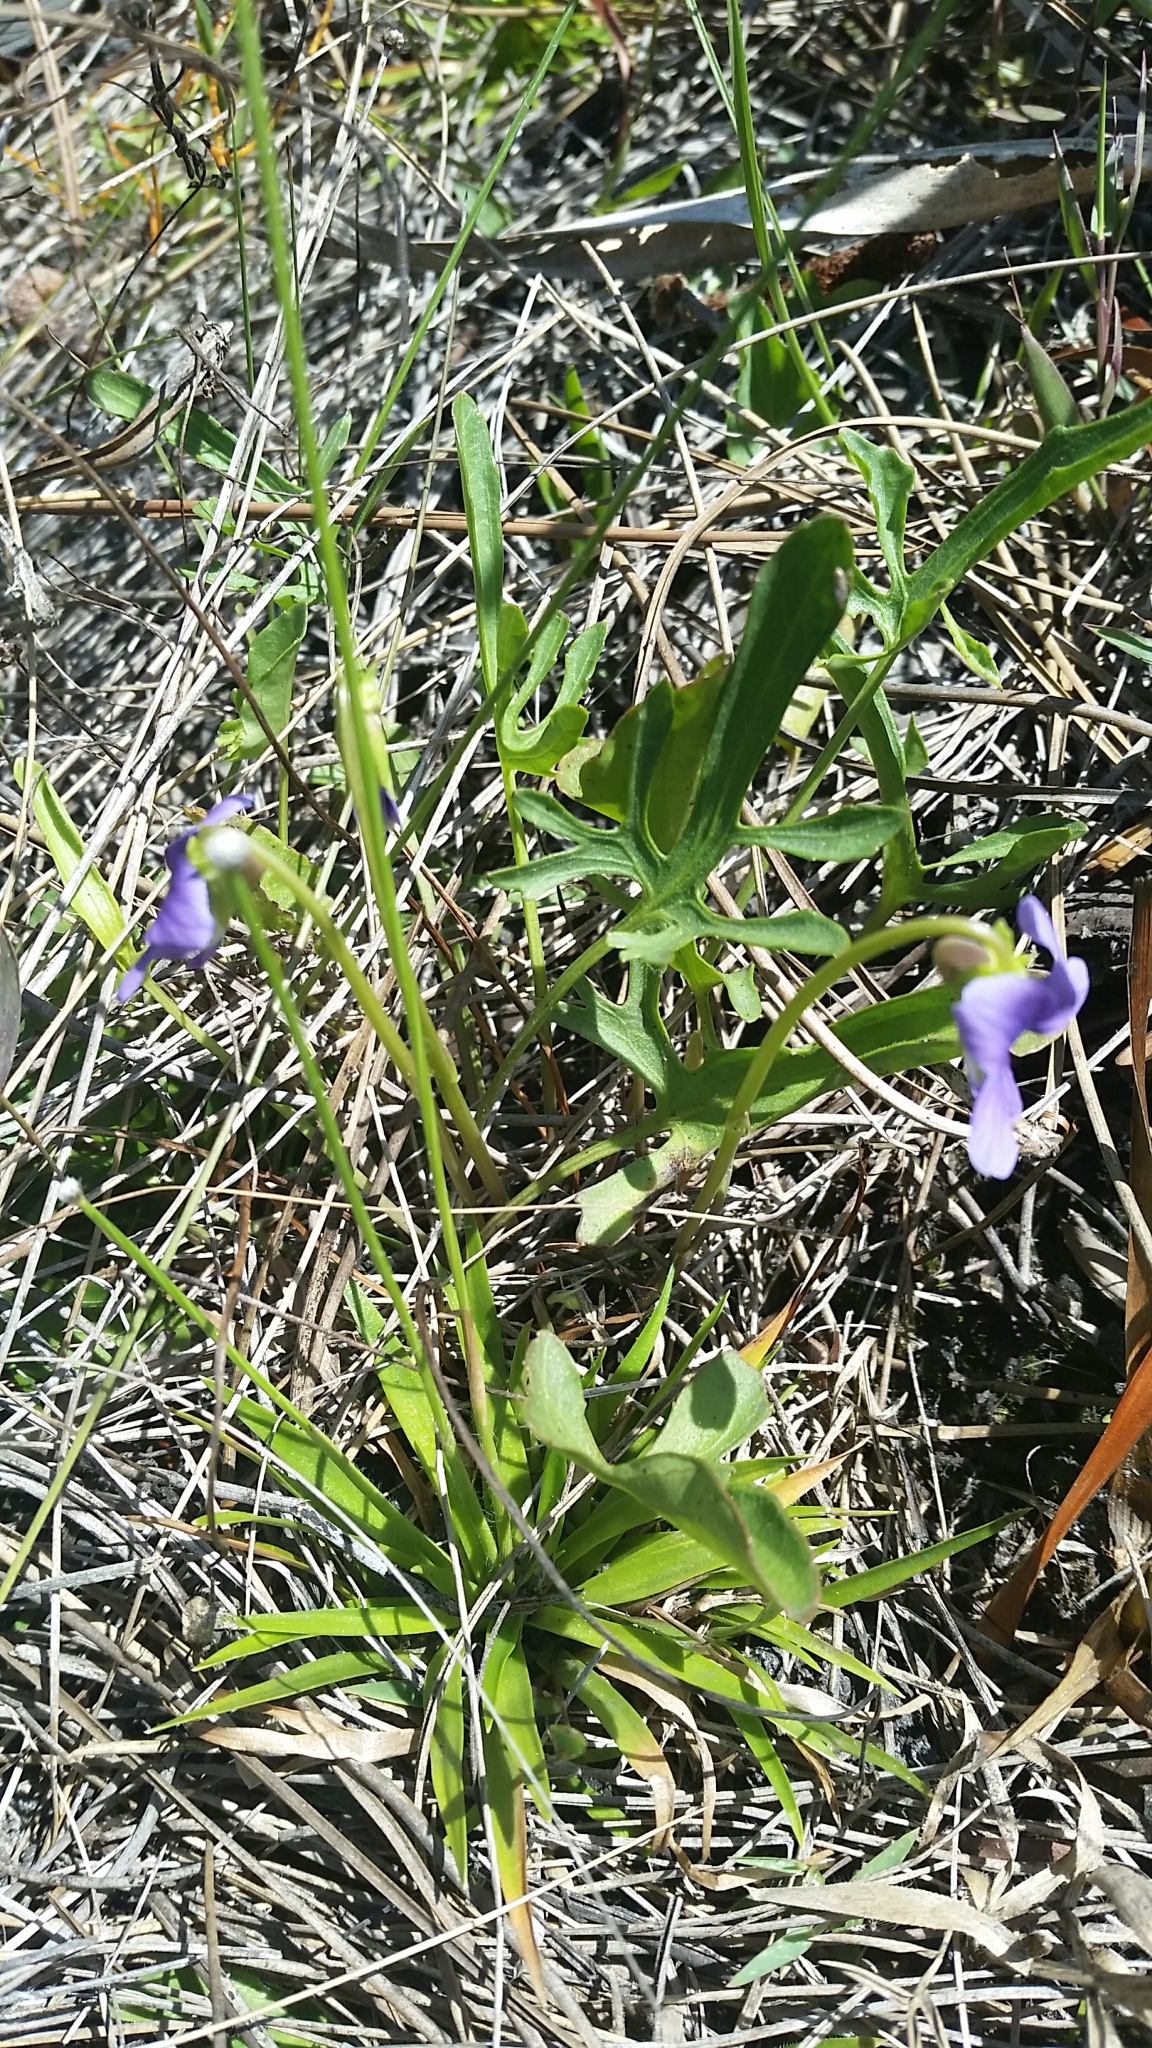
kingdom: Plantae
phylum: Tracheophyta
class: Magnoliopsida
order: Malpighiales
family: Violaceae
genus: Viola
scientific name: Viola septemloba
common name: Southern coast violet
